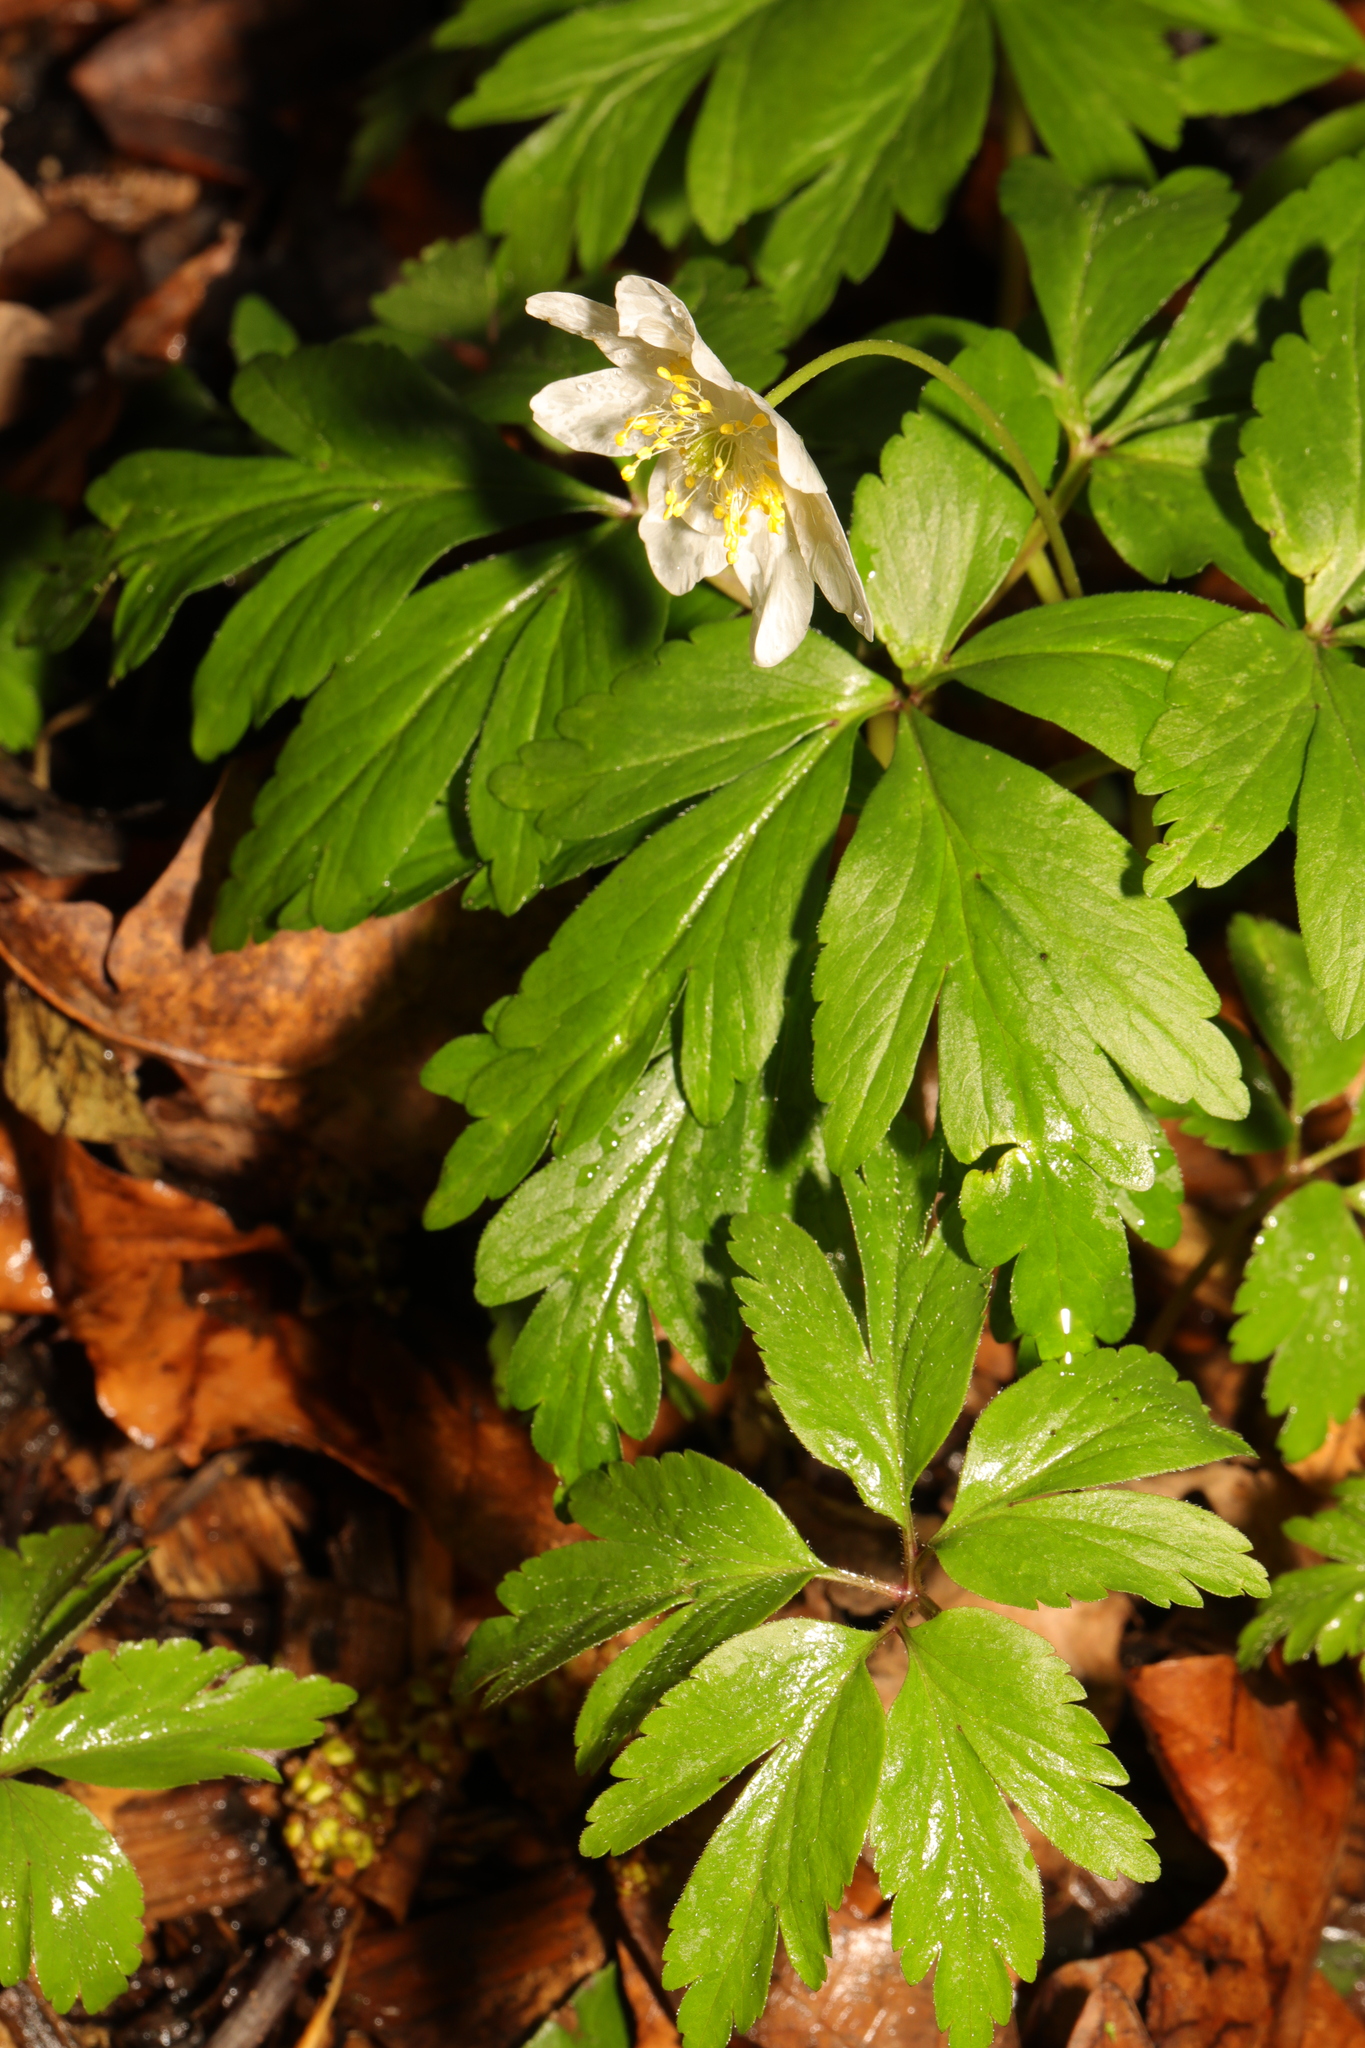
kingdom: Plantae
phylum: Tracheophyta
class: Magnoliopsida
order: Ranunculales
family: Ranunculaceae
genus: Anemone
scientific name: Anemone nemorosa
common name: Wood anemone
